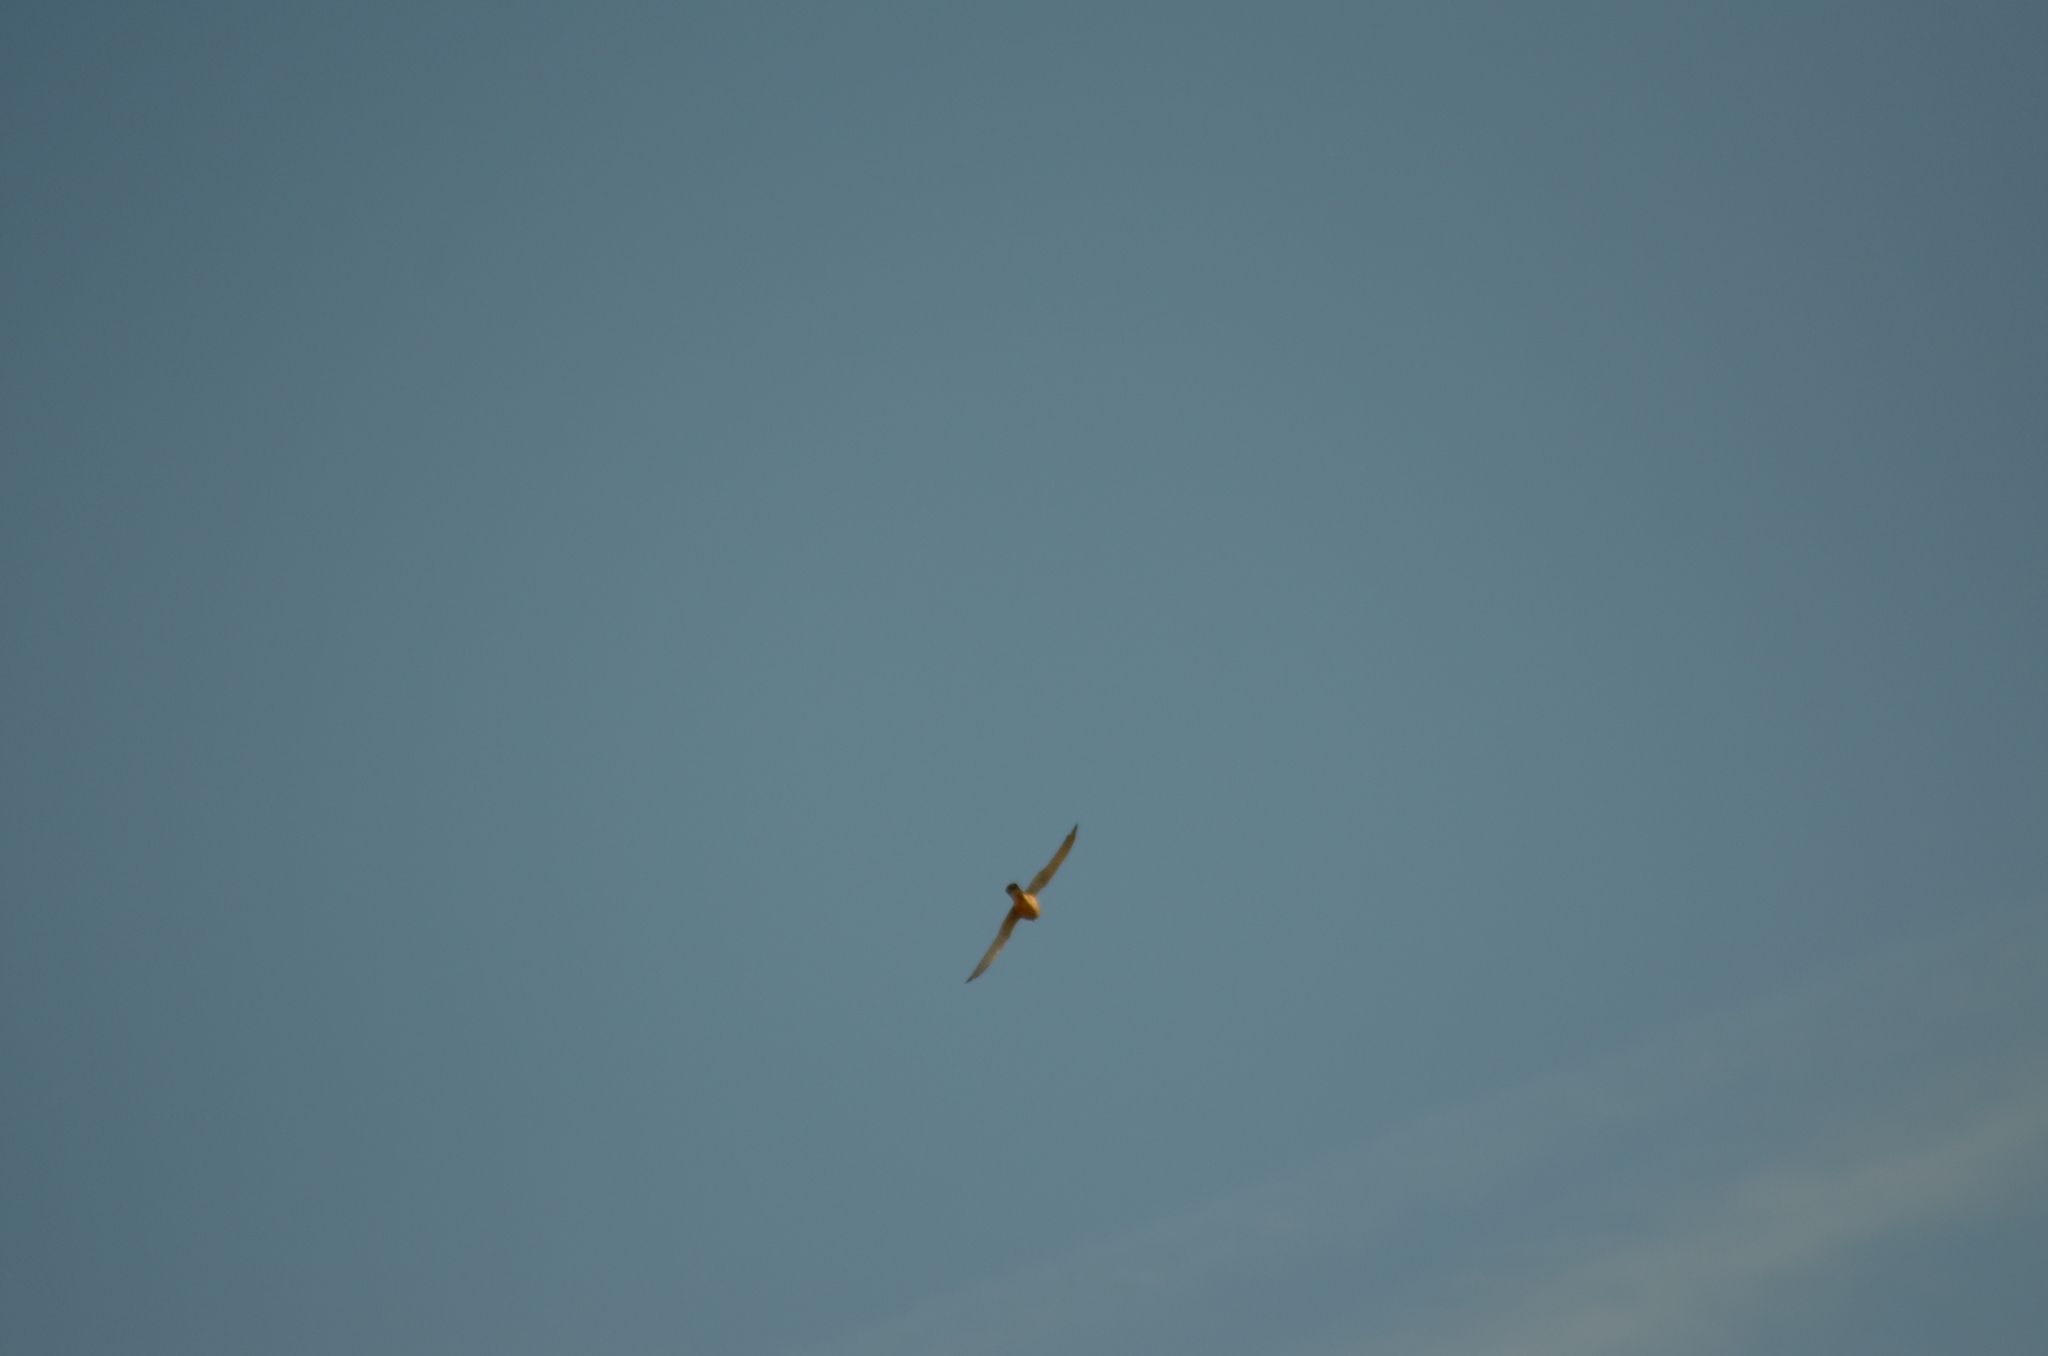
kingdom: Animalia
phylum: Chordata
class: Aves
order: Falconiformes
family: Falconidae
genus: Falco
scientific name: Falco tinnunculus
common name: Common kestrel
